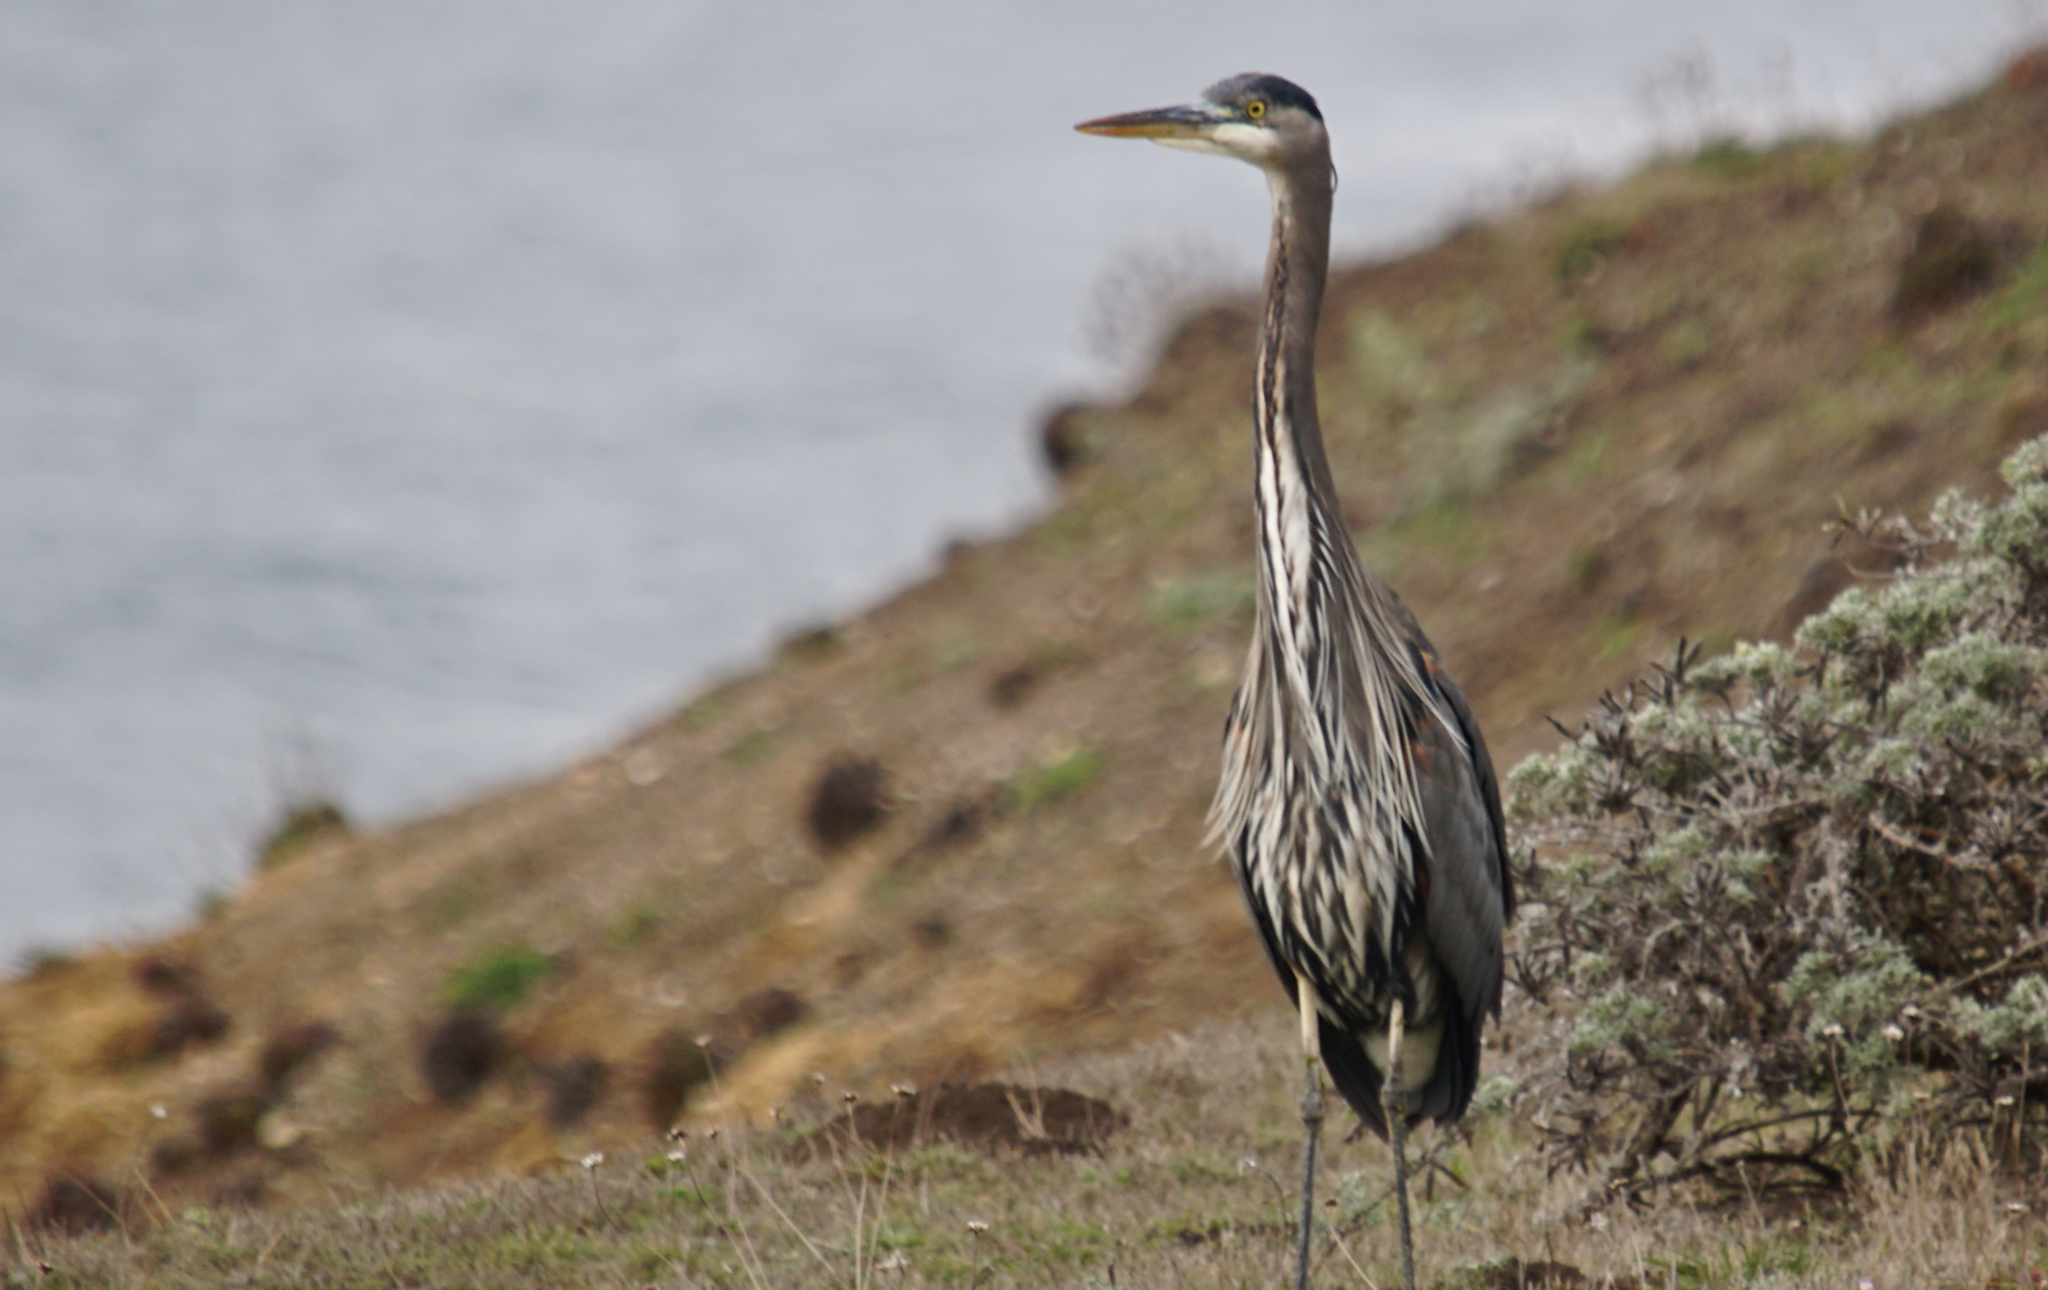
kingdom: Animalia
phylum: Chordata
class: Aves
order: Pelecaniformes
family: Ardeidae
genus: Ardea
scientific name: Ardea herodias
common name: Great blue heron
